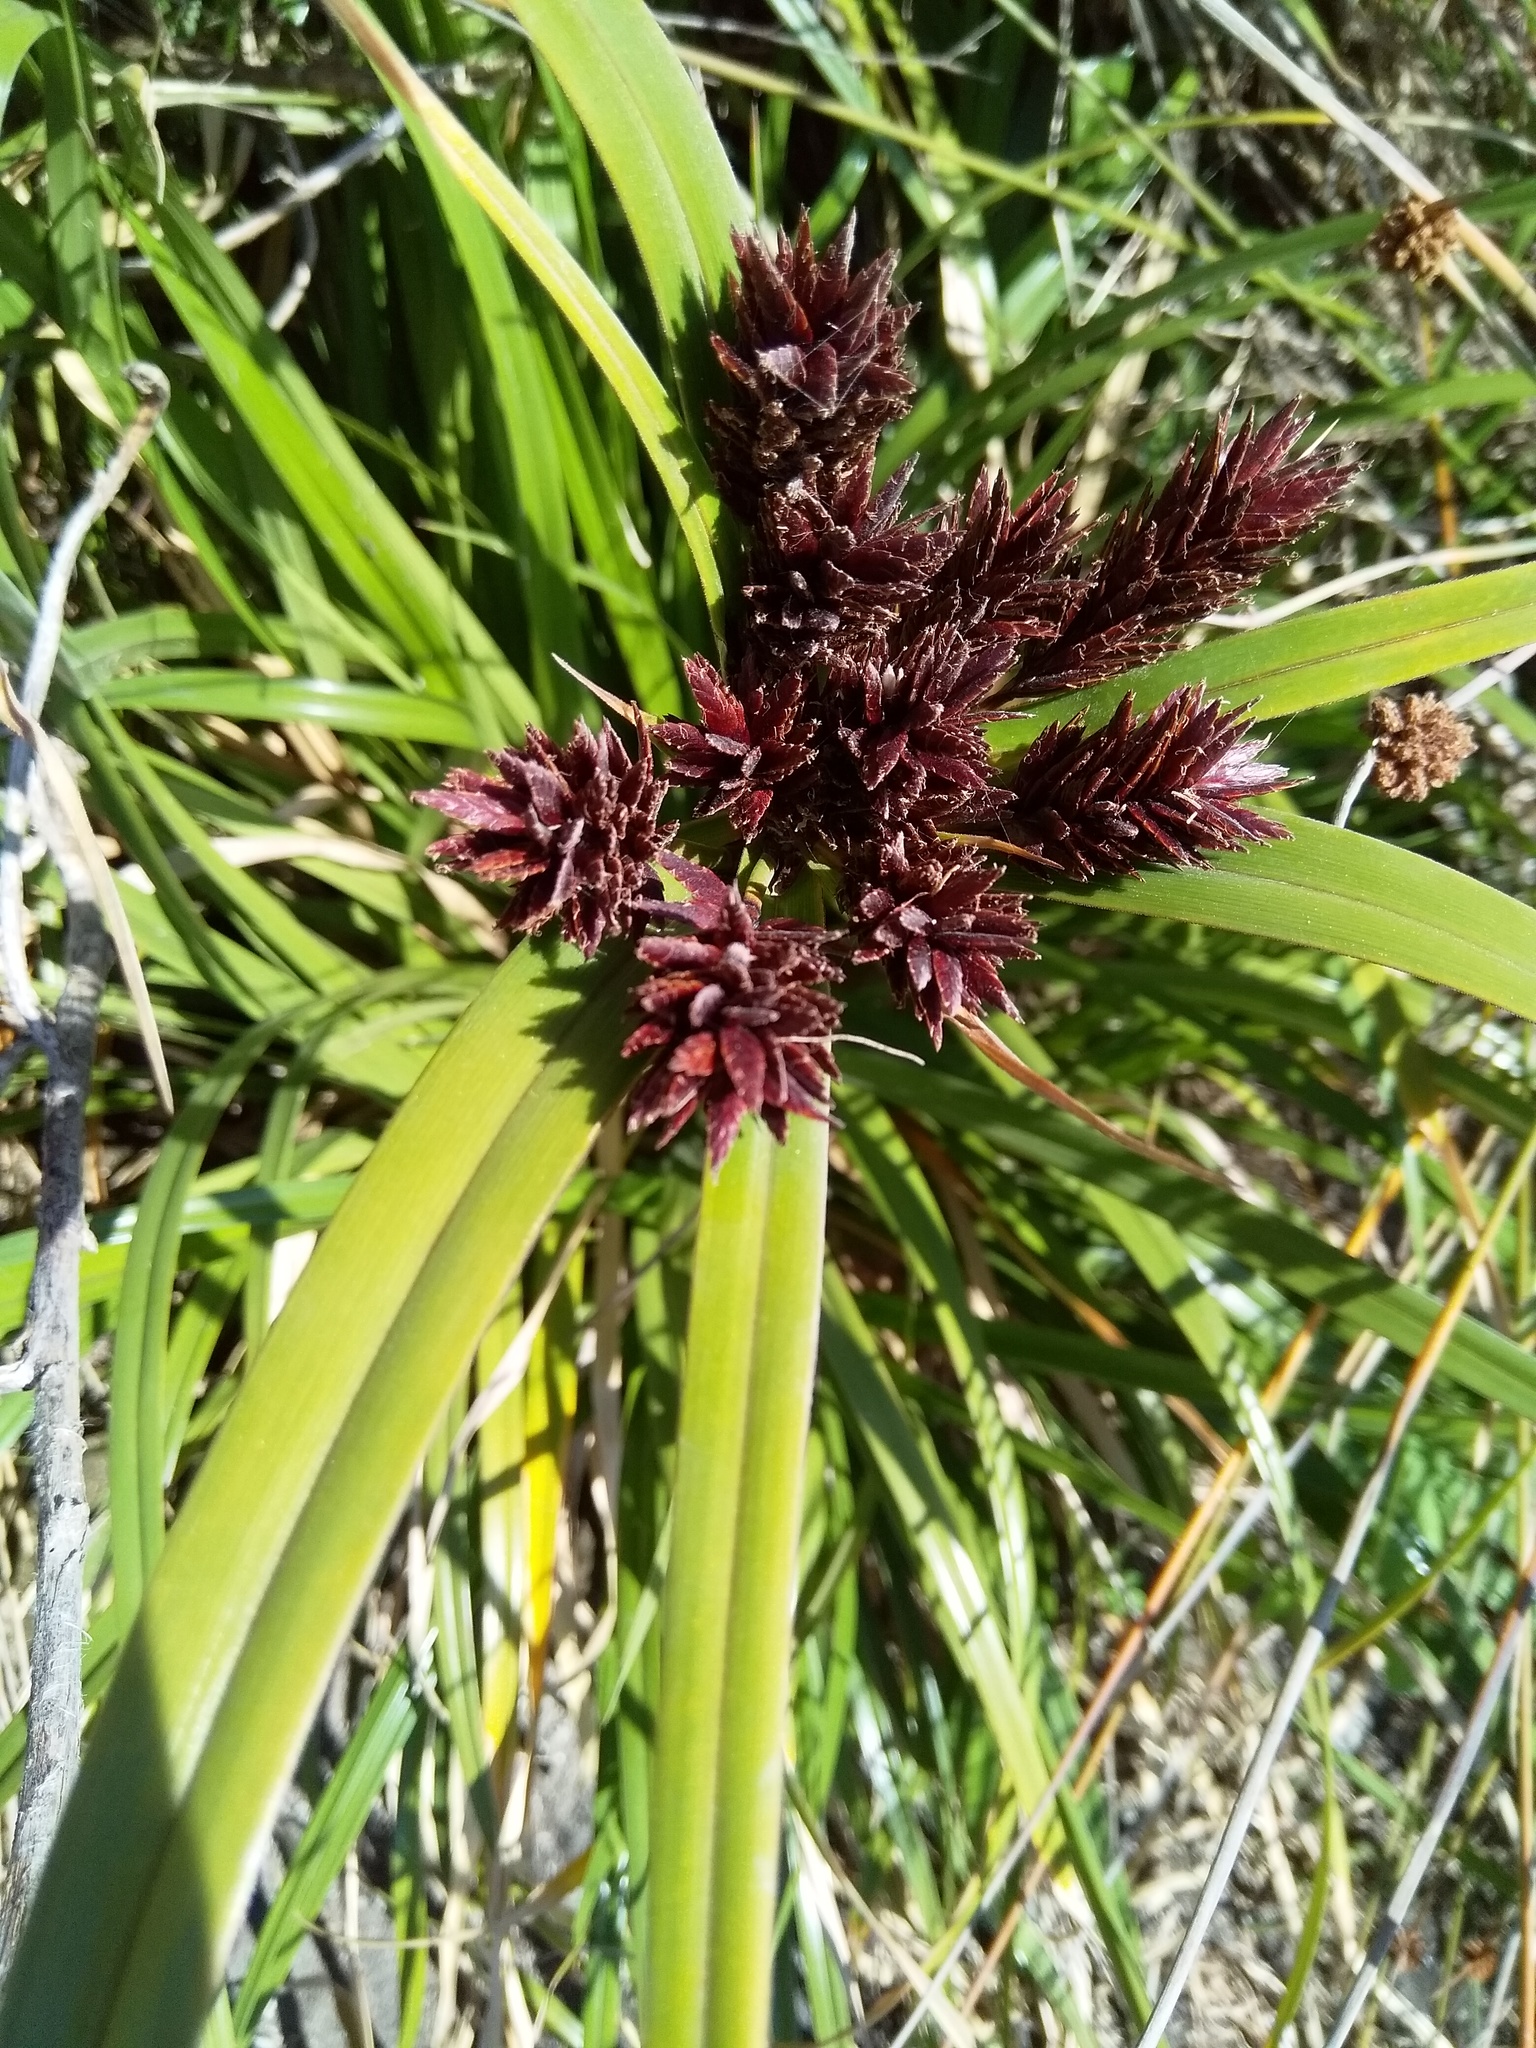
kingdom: Plantae
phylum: Tracheophyta
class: Liliopsida
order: Poales
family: Cyperaceae
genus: Cyperus
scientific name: Cyperus ustulatus
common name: Giant umbrella-sedge
